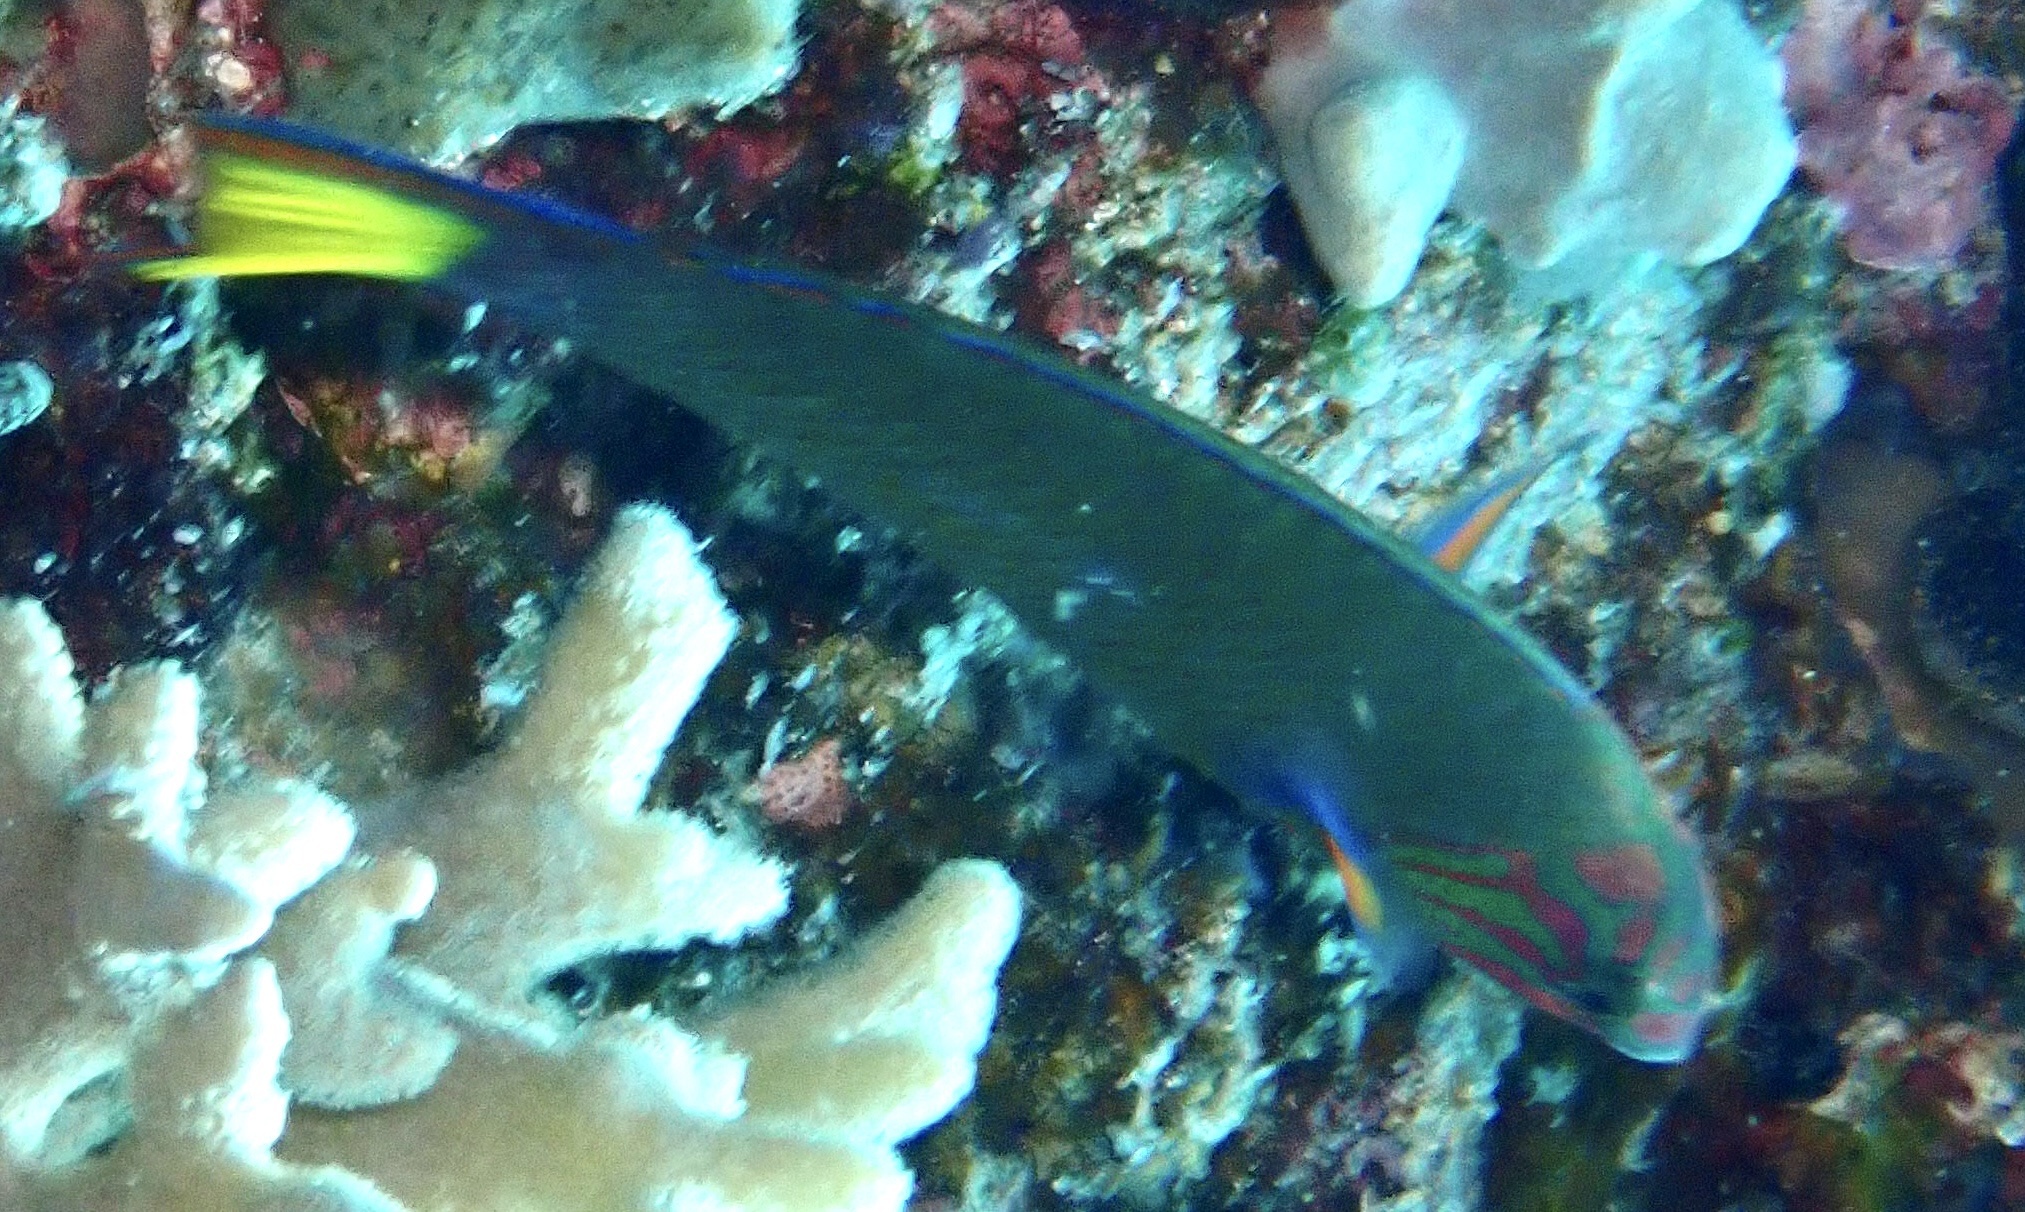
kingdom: Animalia
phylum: Chordata
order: Perciformes
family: Labridae
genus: Thalassoma
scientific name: Thalassoma lunare
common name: Blue wrasse
